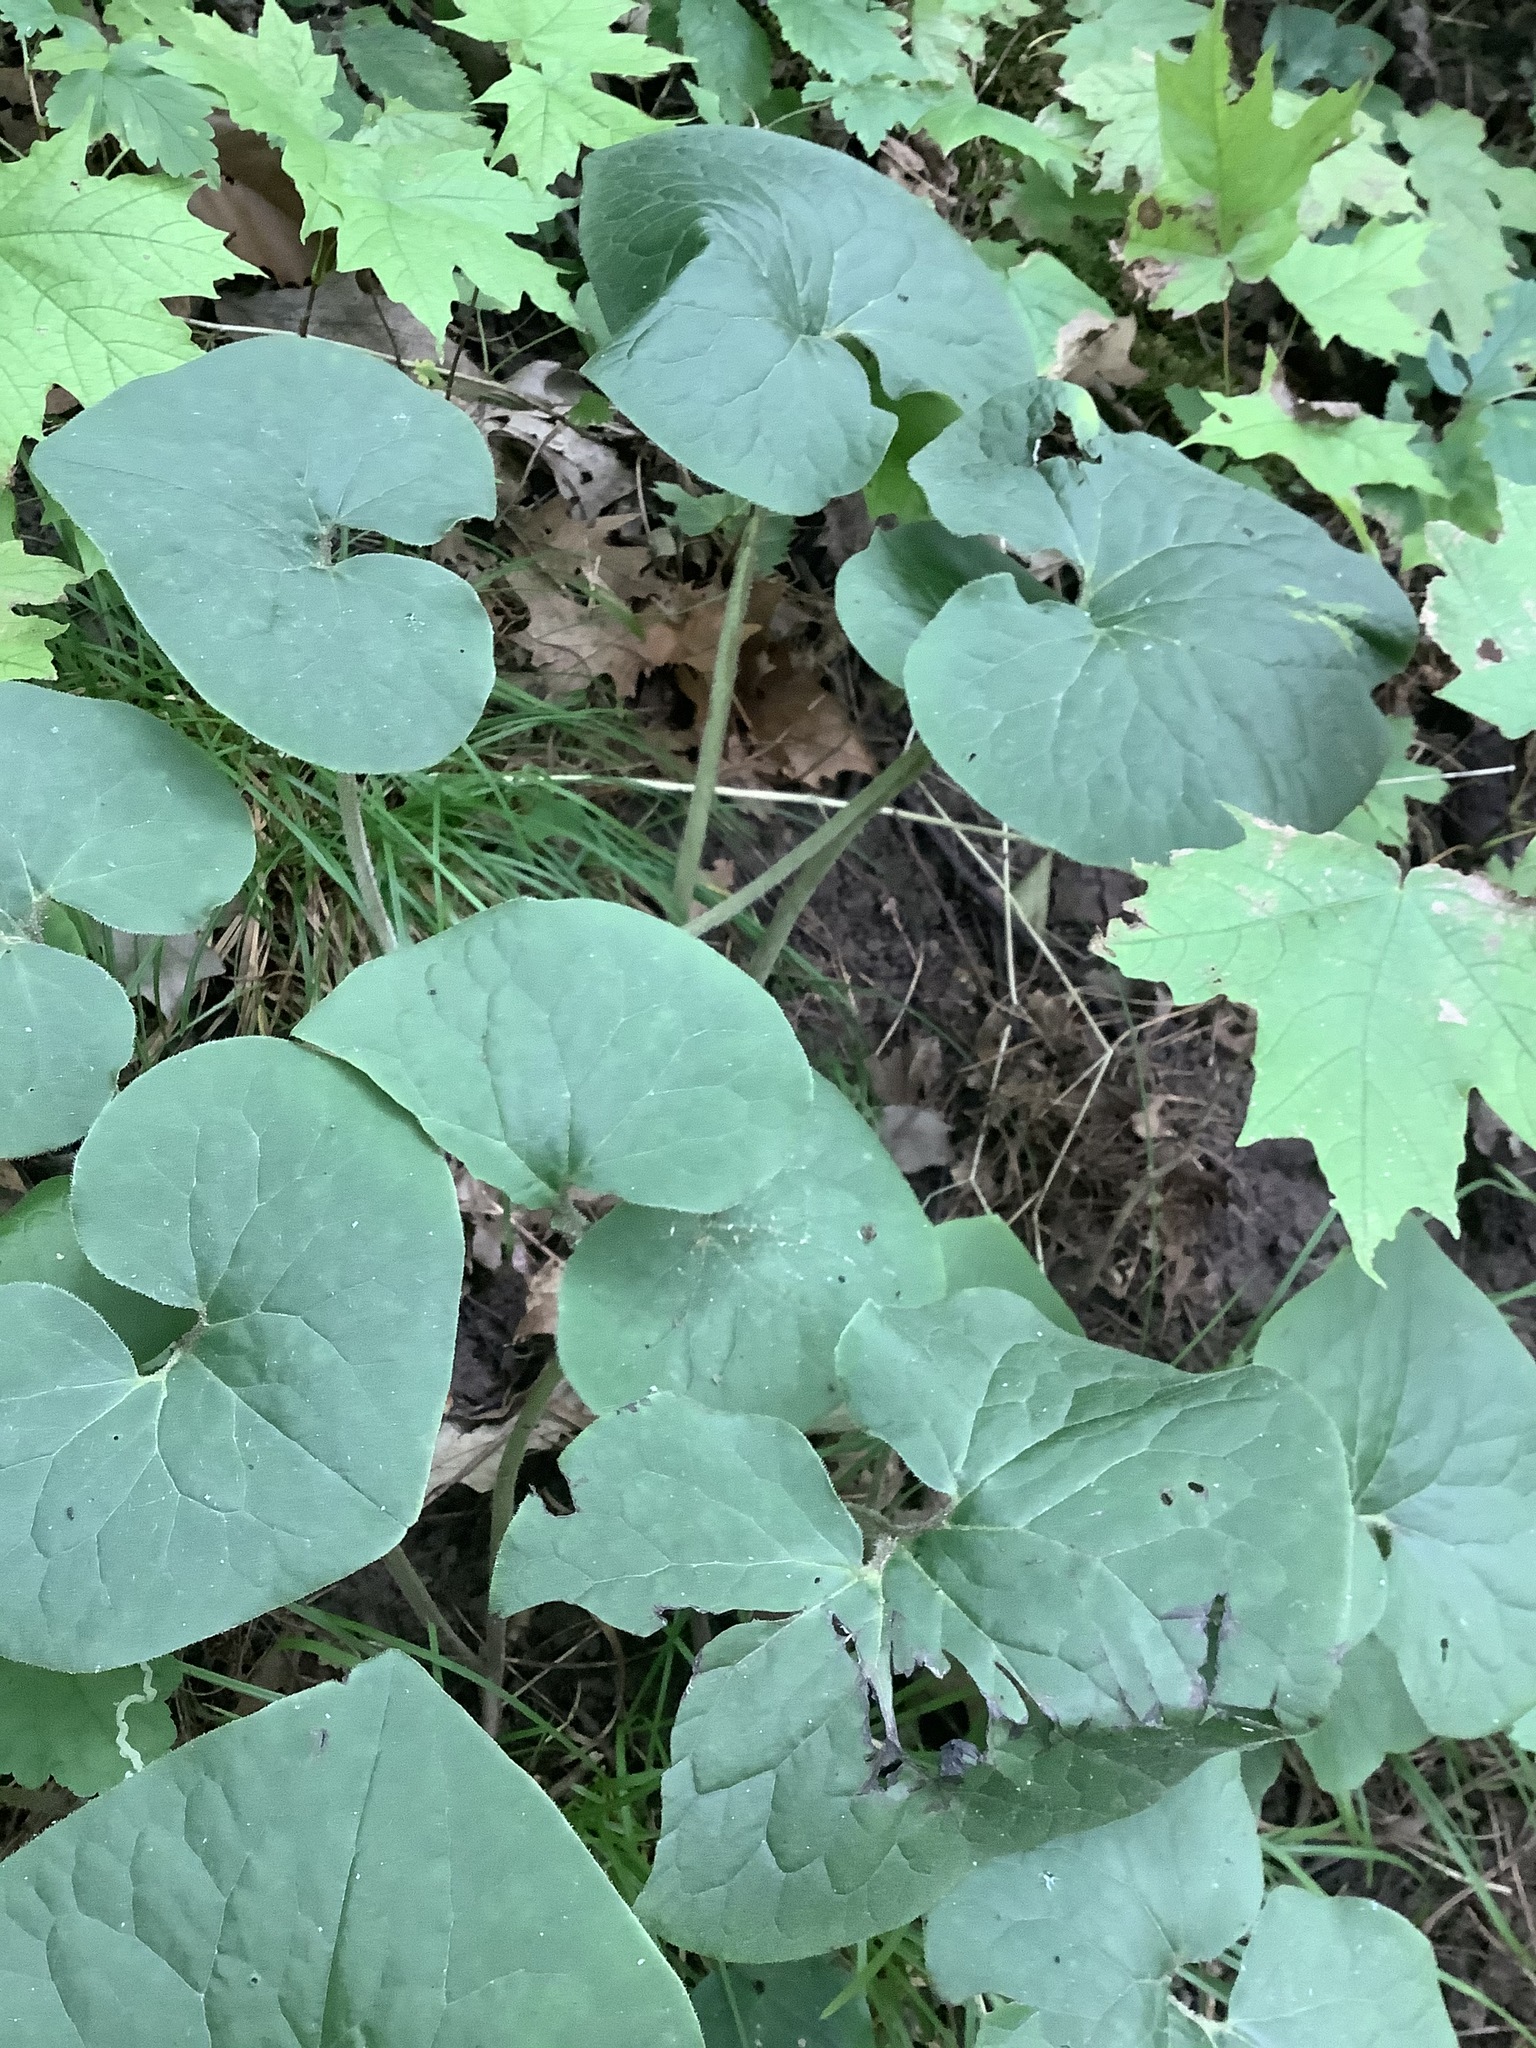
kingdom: Plantae
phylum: Tracheophyta
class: Magnoliopsida
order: Piperales
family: Aristolochiaceae
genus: Asarum
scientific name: Asarum canadense
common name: Wild ginger
